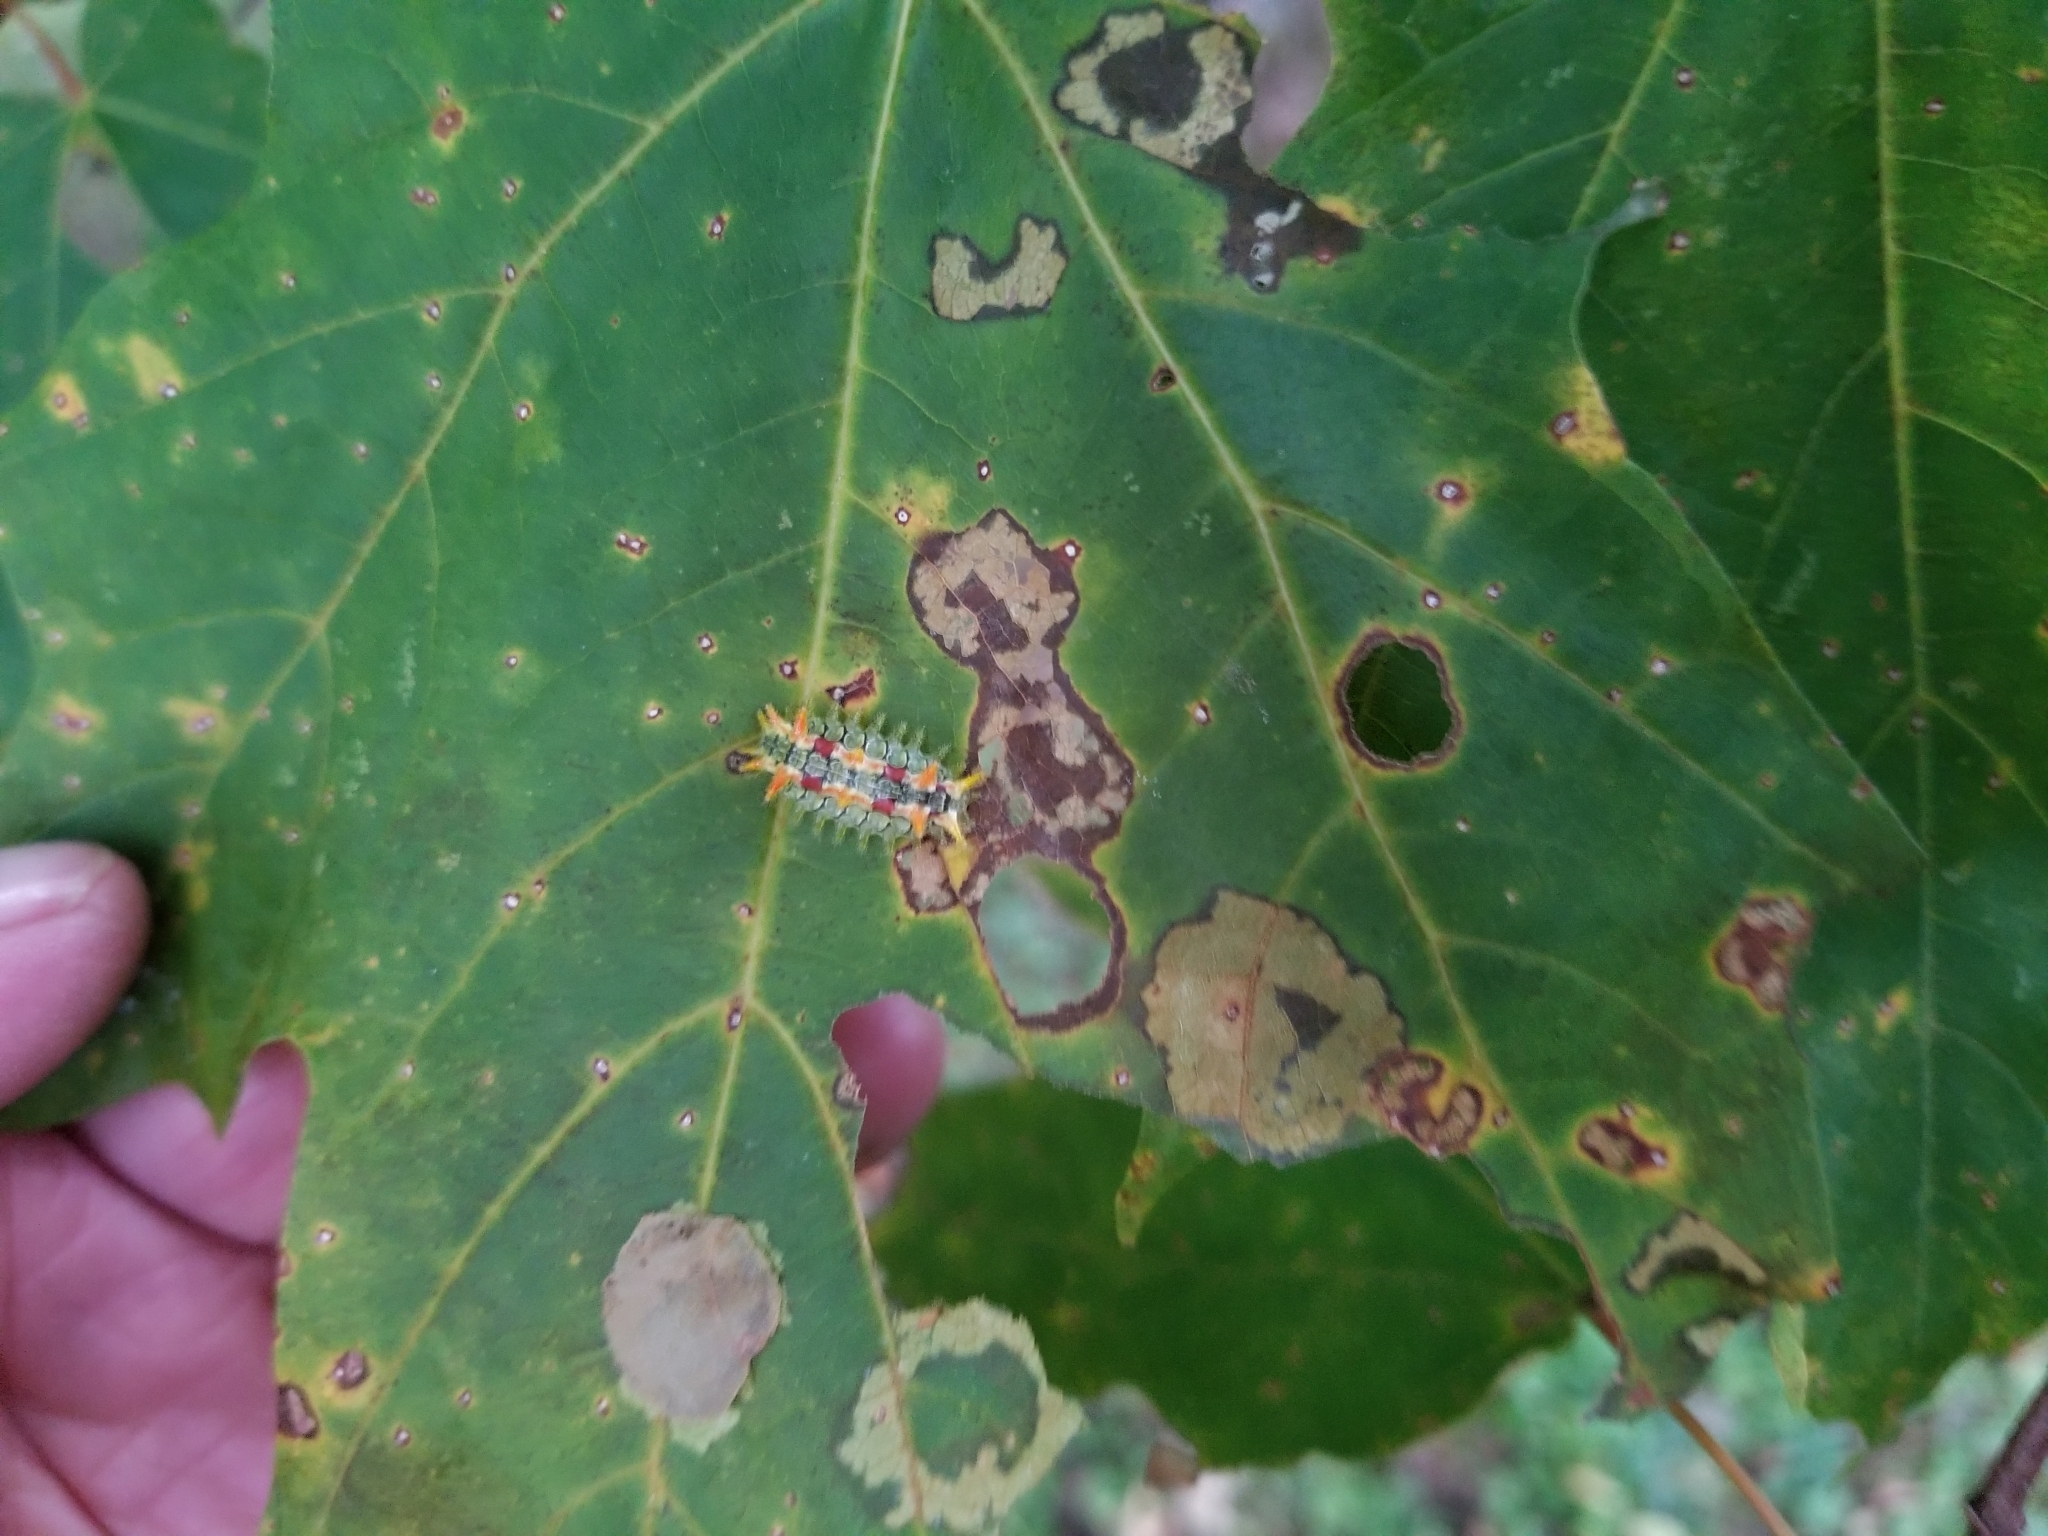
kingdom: Animalia
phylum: Arthropoda
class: Insecta
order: Lepidoptera
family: Limacodidae
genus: Euclea
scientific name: Euclea delphinii
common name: Spiny oak-slug moth
